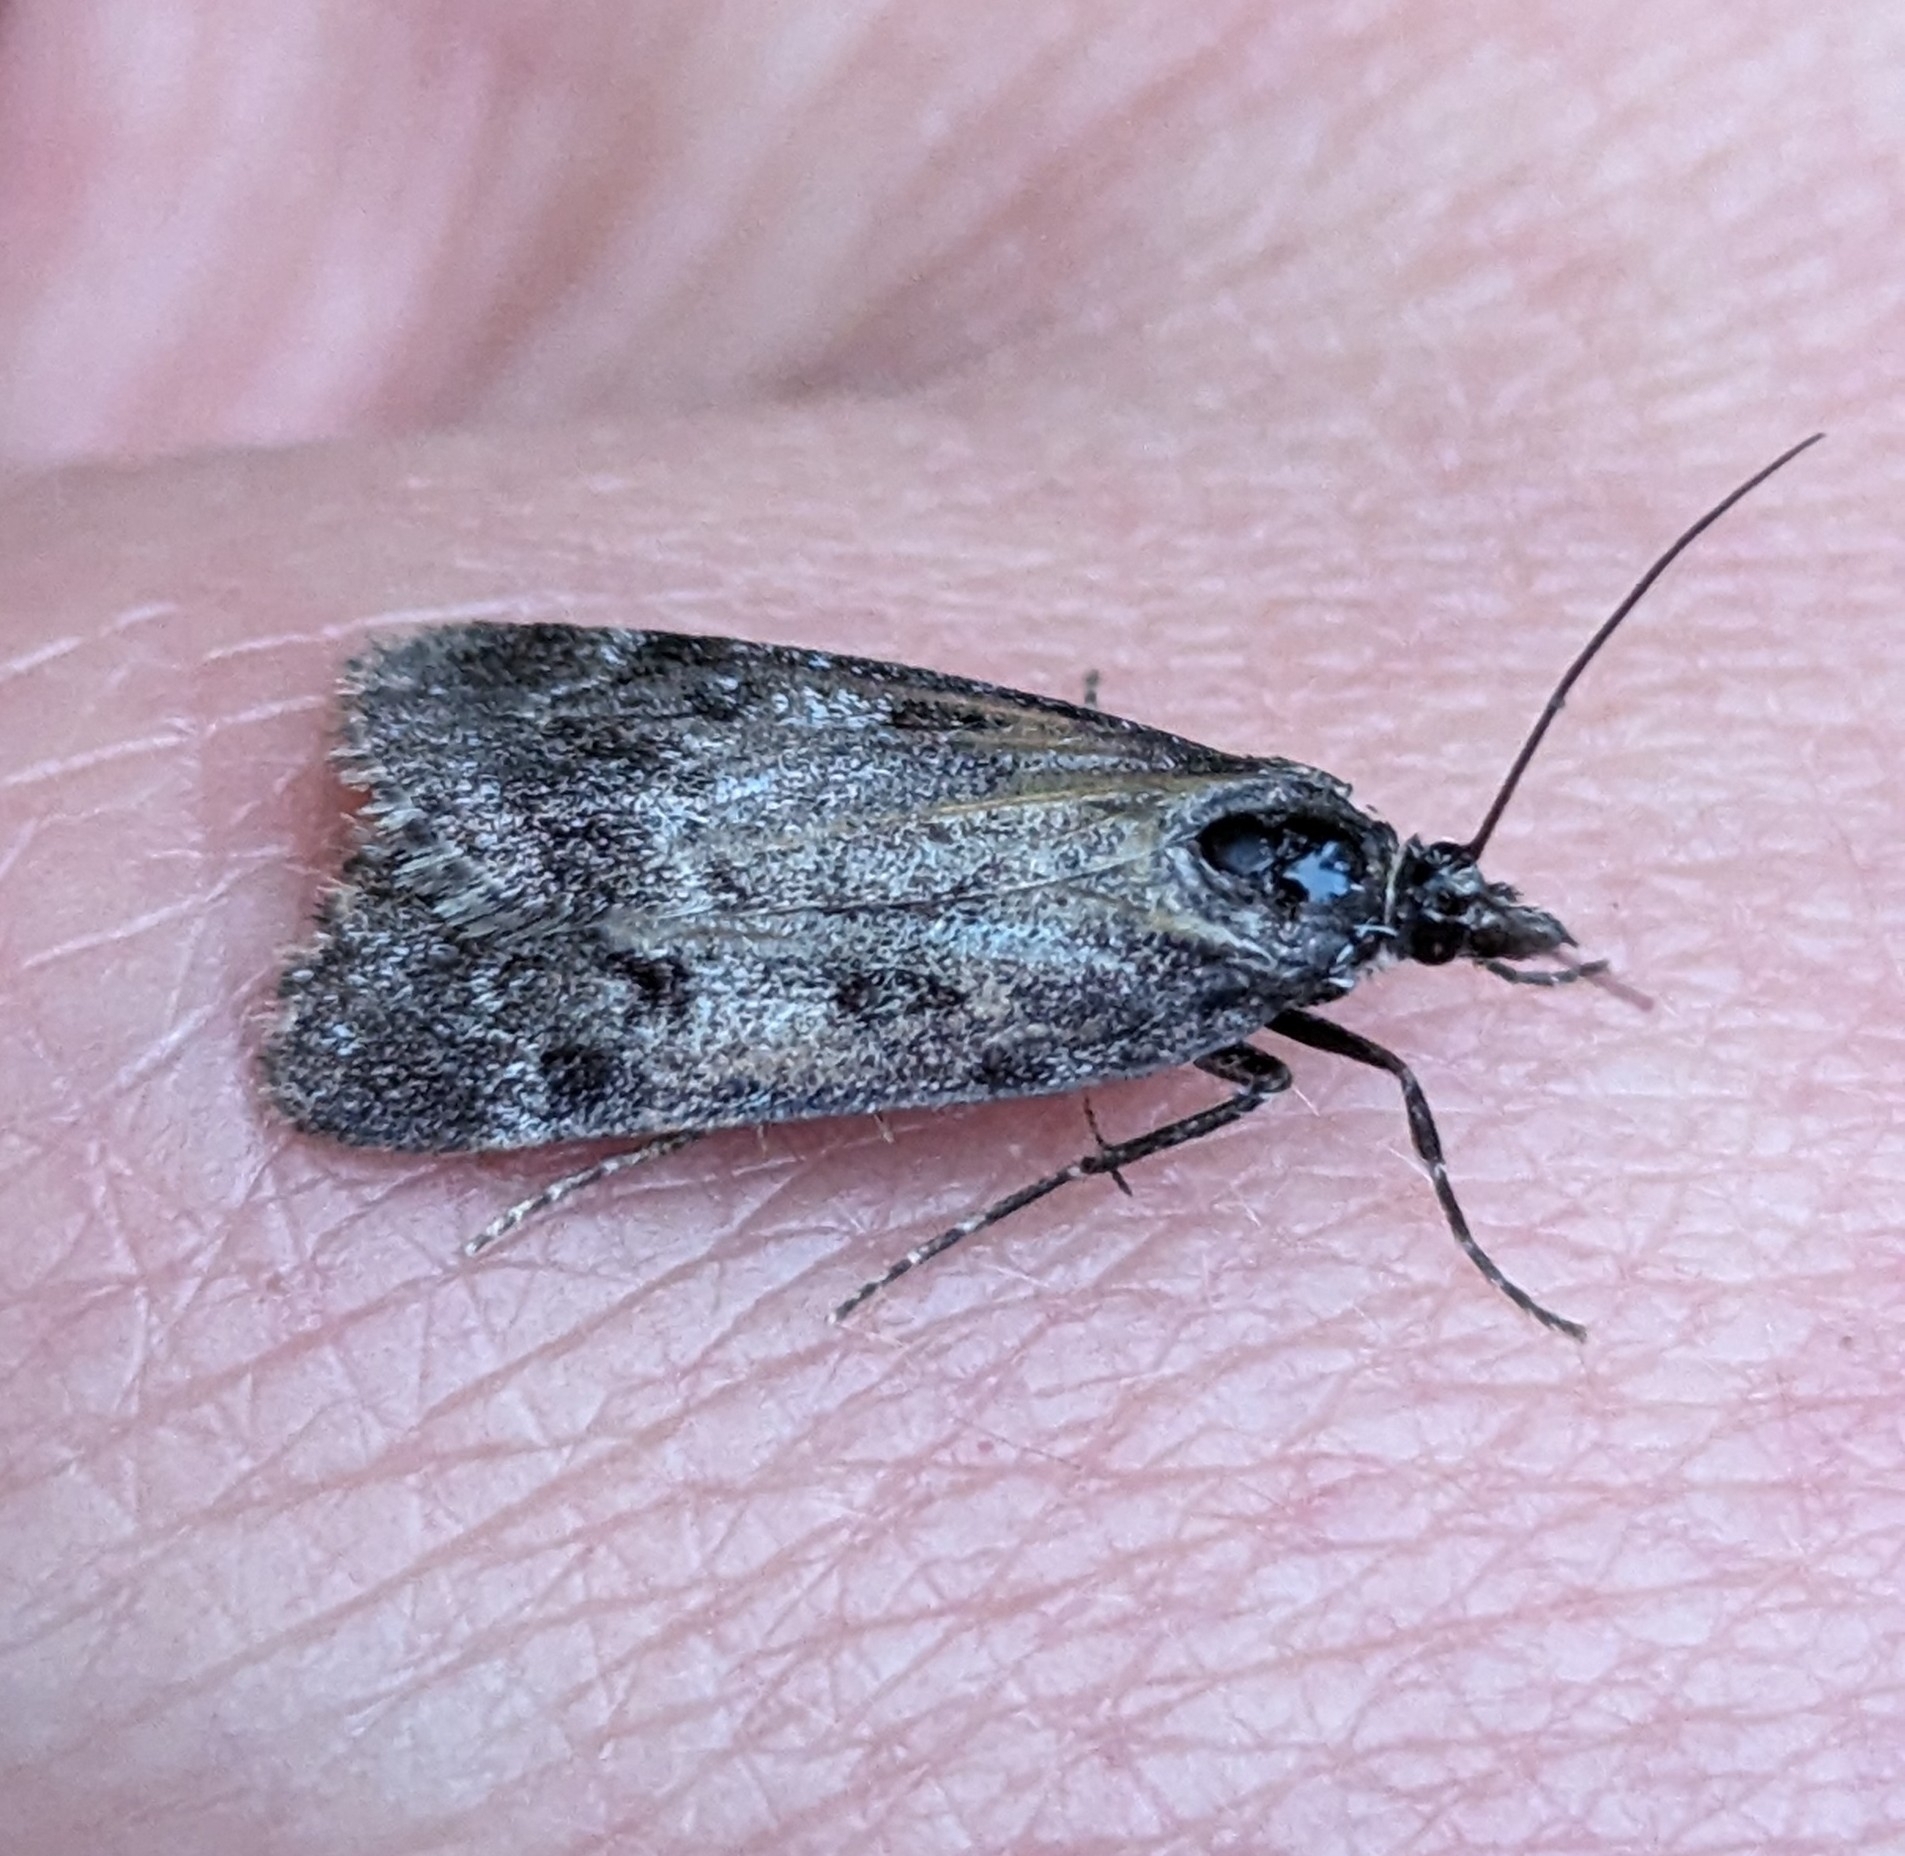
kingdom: Animalia
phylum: Arthropoda
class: Insecta
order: Lepidoptera
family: Crambidae
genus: Gesneria
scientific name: Gesneria centuriella
